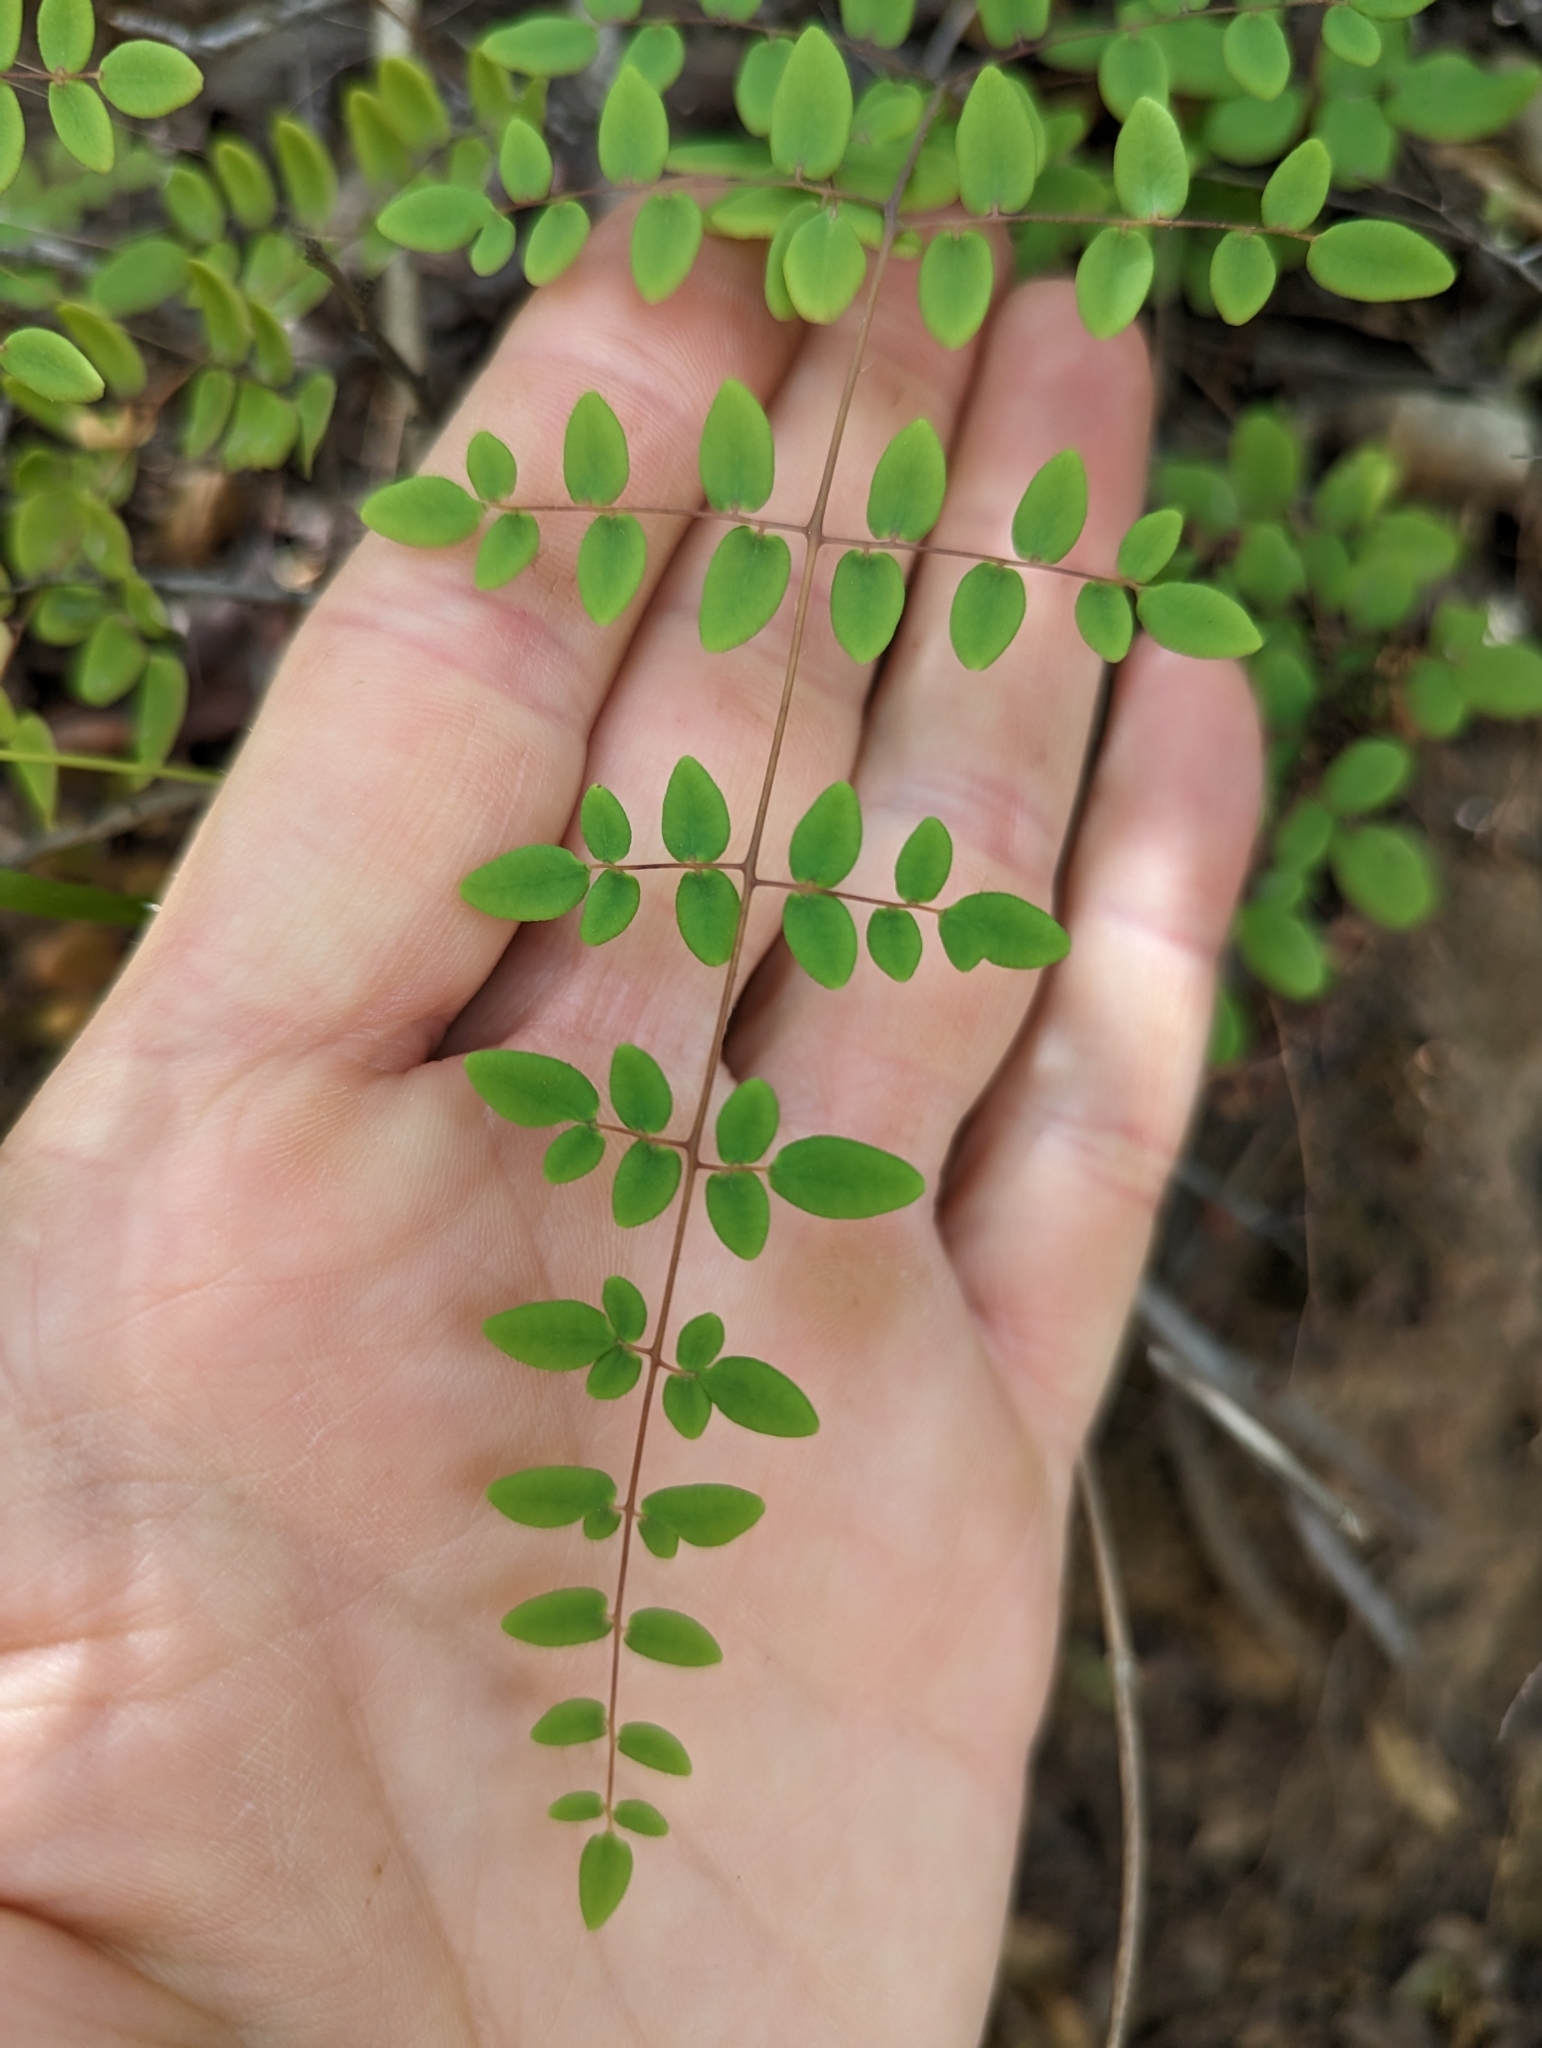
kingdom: Plantae
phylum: Tracheophyta
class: Polypodiopsida
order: Polypodiales
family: Pteridaceae
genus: Pellaea
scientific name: Pellaea andromedifolia
